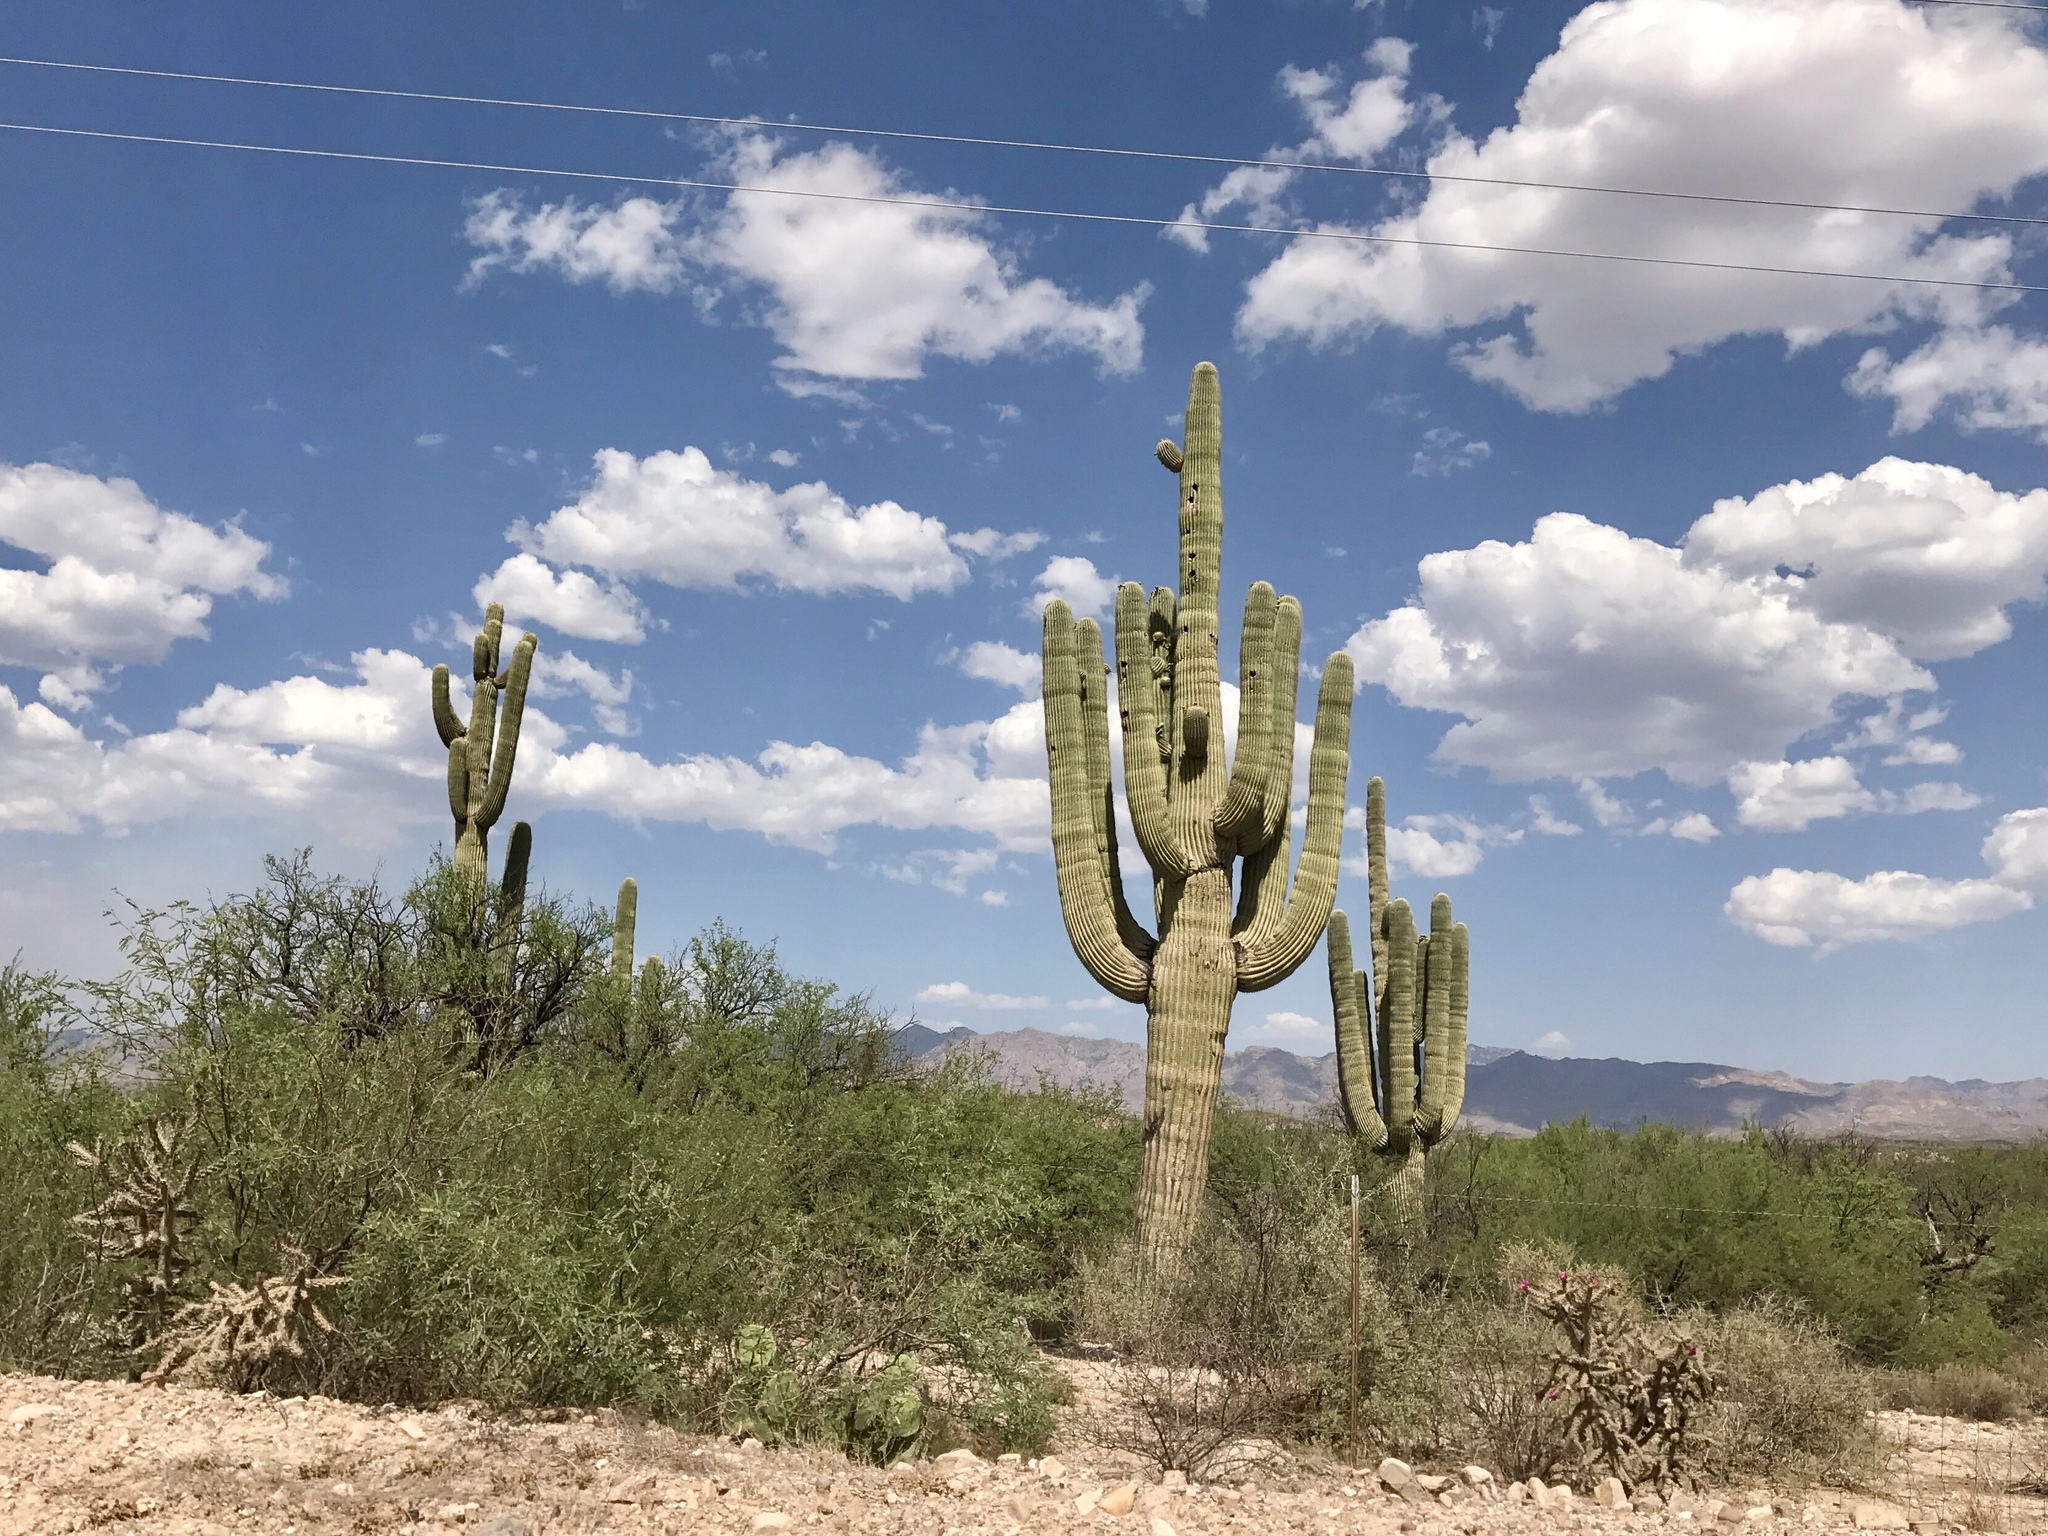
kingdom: Plantae
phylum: Tracheophyta
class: Magnoliopsida
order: Caryophyllales
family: Cactaceae
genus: Carnegiea
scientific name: Carnegiea gigantea
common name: Saguaro
